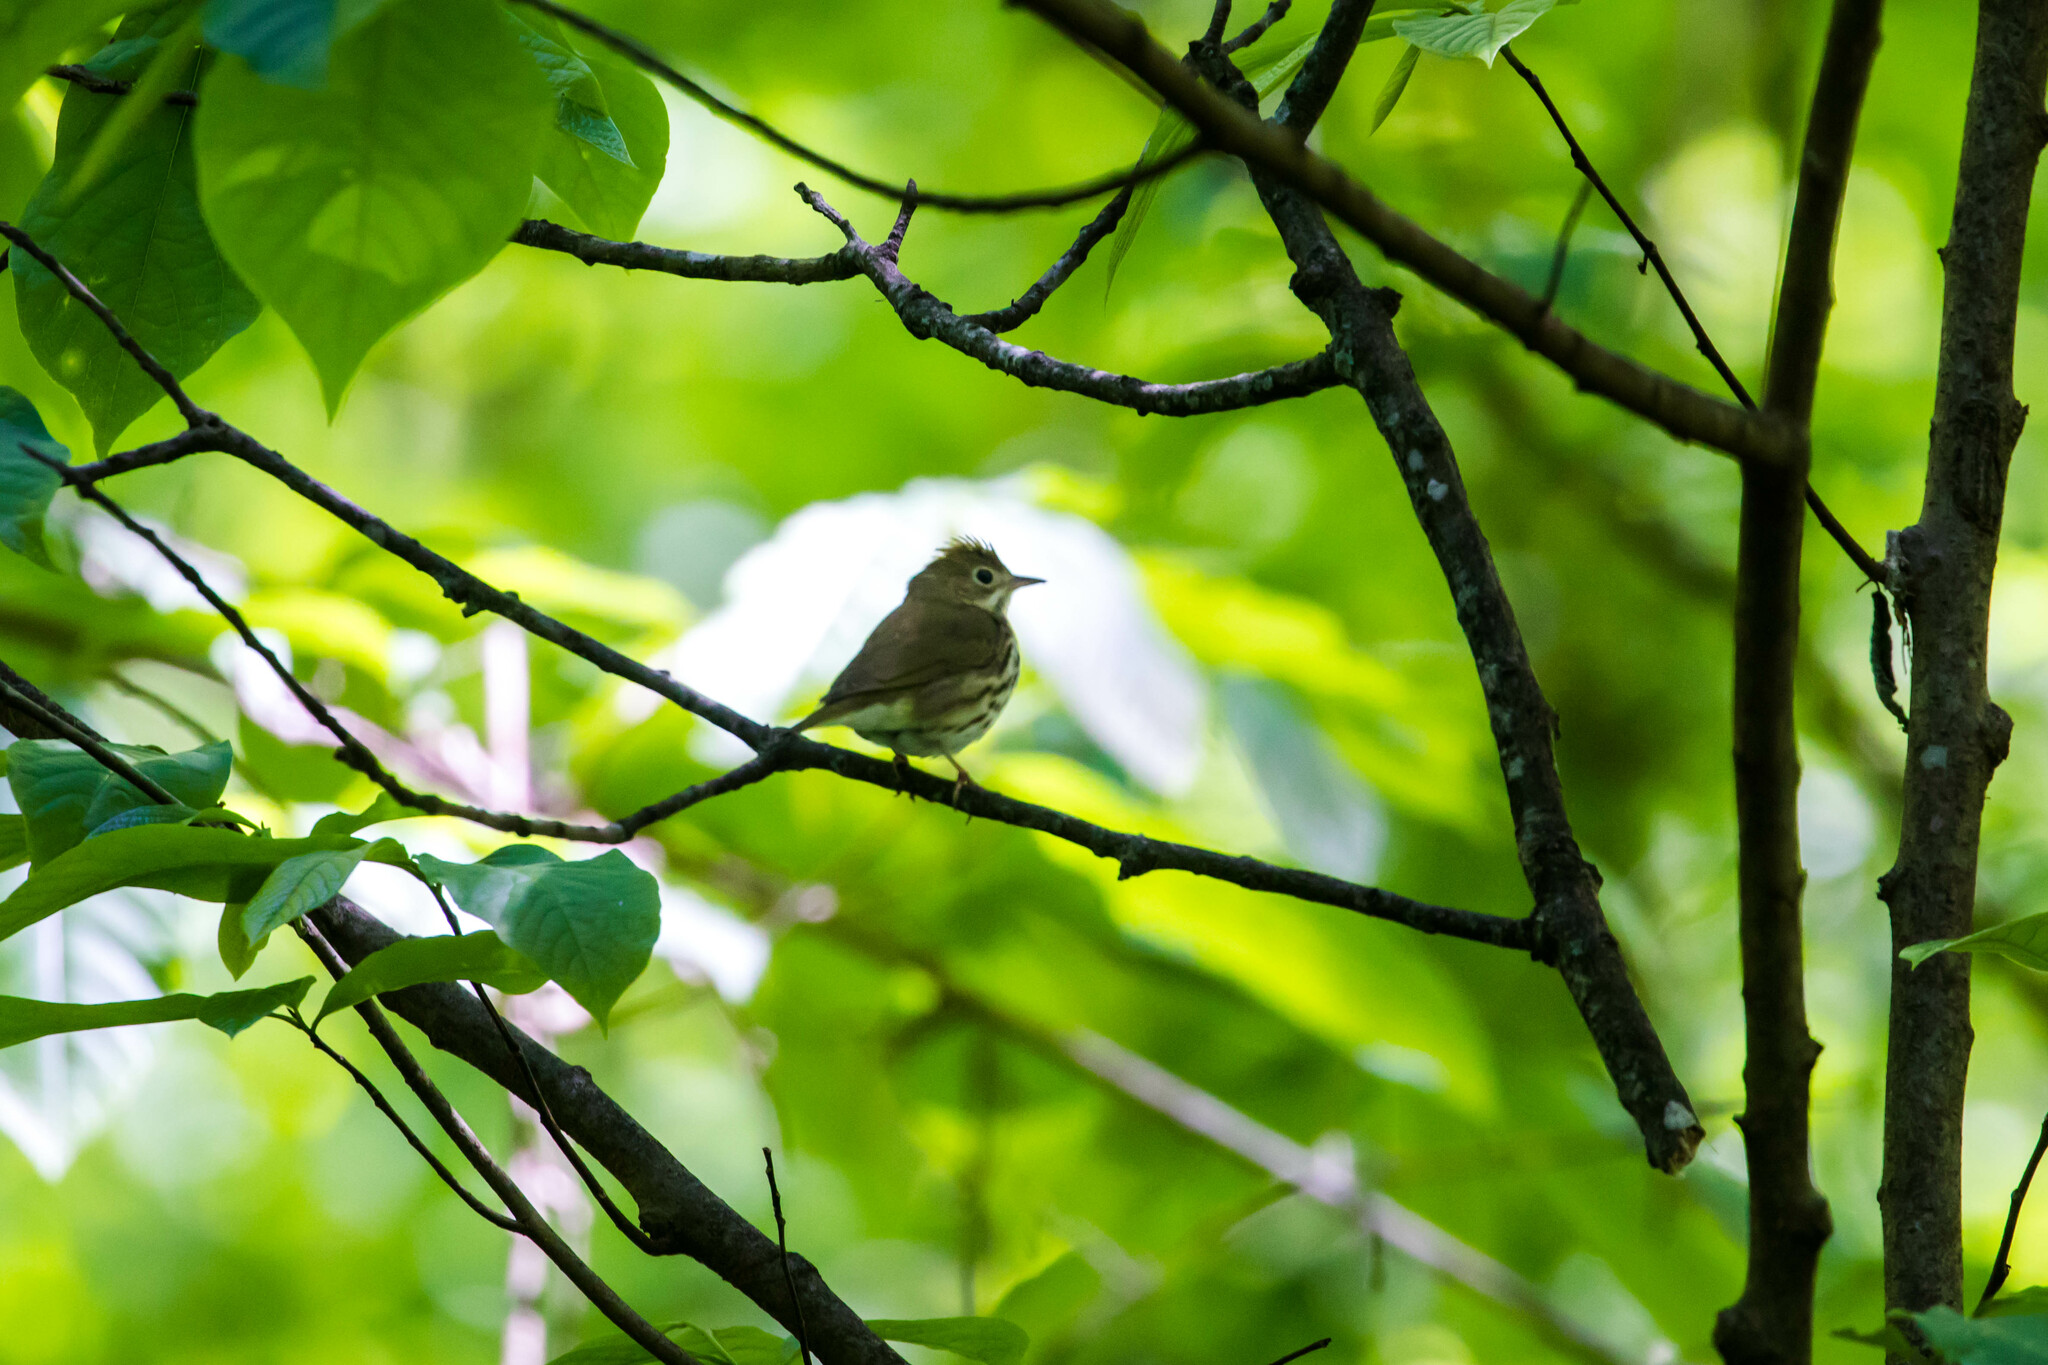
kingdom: Animalia
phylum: Chordata
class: Aves
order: Passeriformes
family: Parulidae
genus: Seiurus
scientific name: Seiurus aurocapilla
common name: Ovenbird
